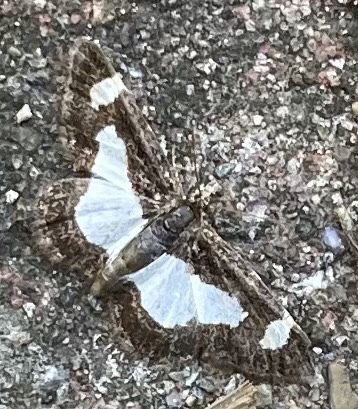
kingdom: Animalia
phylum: Arthropoda
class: Insecta
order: Lepidoptera
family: Geometridae
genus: Heliomata
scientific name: Heliomata cycladata
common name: Common spring moth
